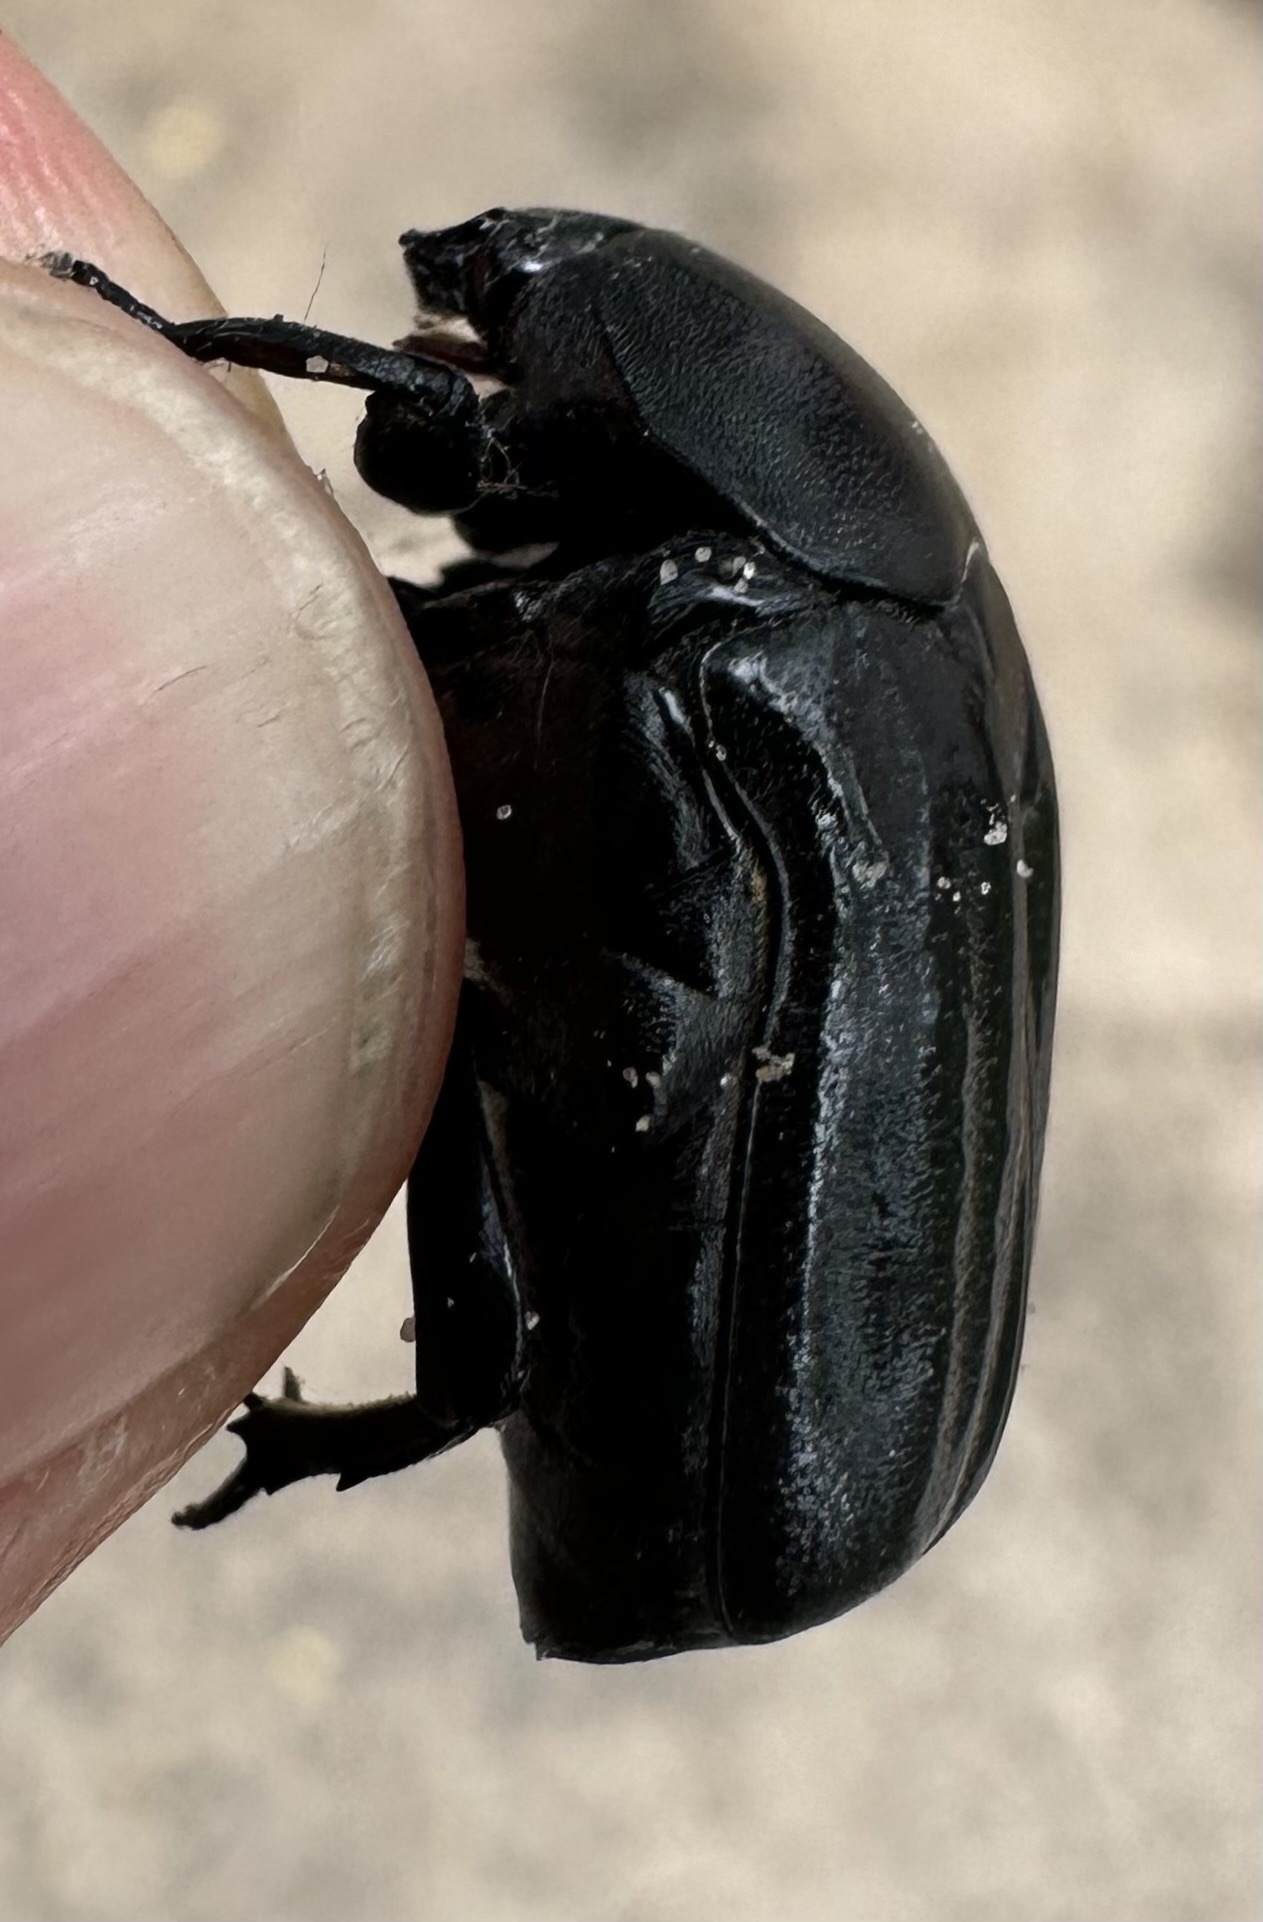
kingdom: Animalia
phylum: Arthropoda
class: Insecta
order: Coleoptera
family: Scarabaeidae
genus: Oplostomus
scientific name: Oplostomus fuligineus
